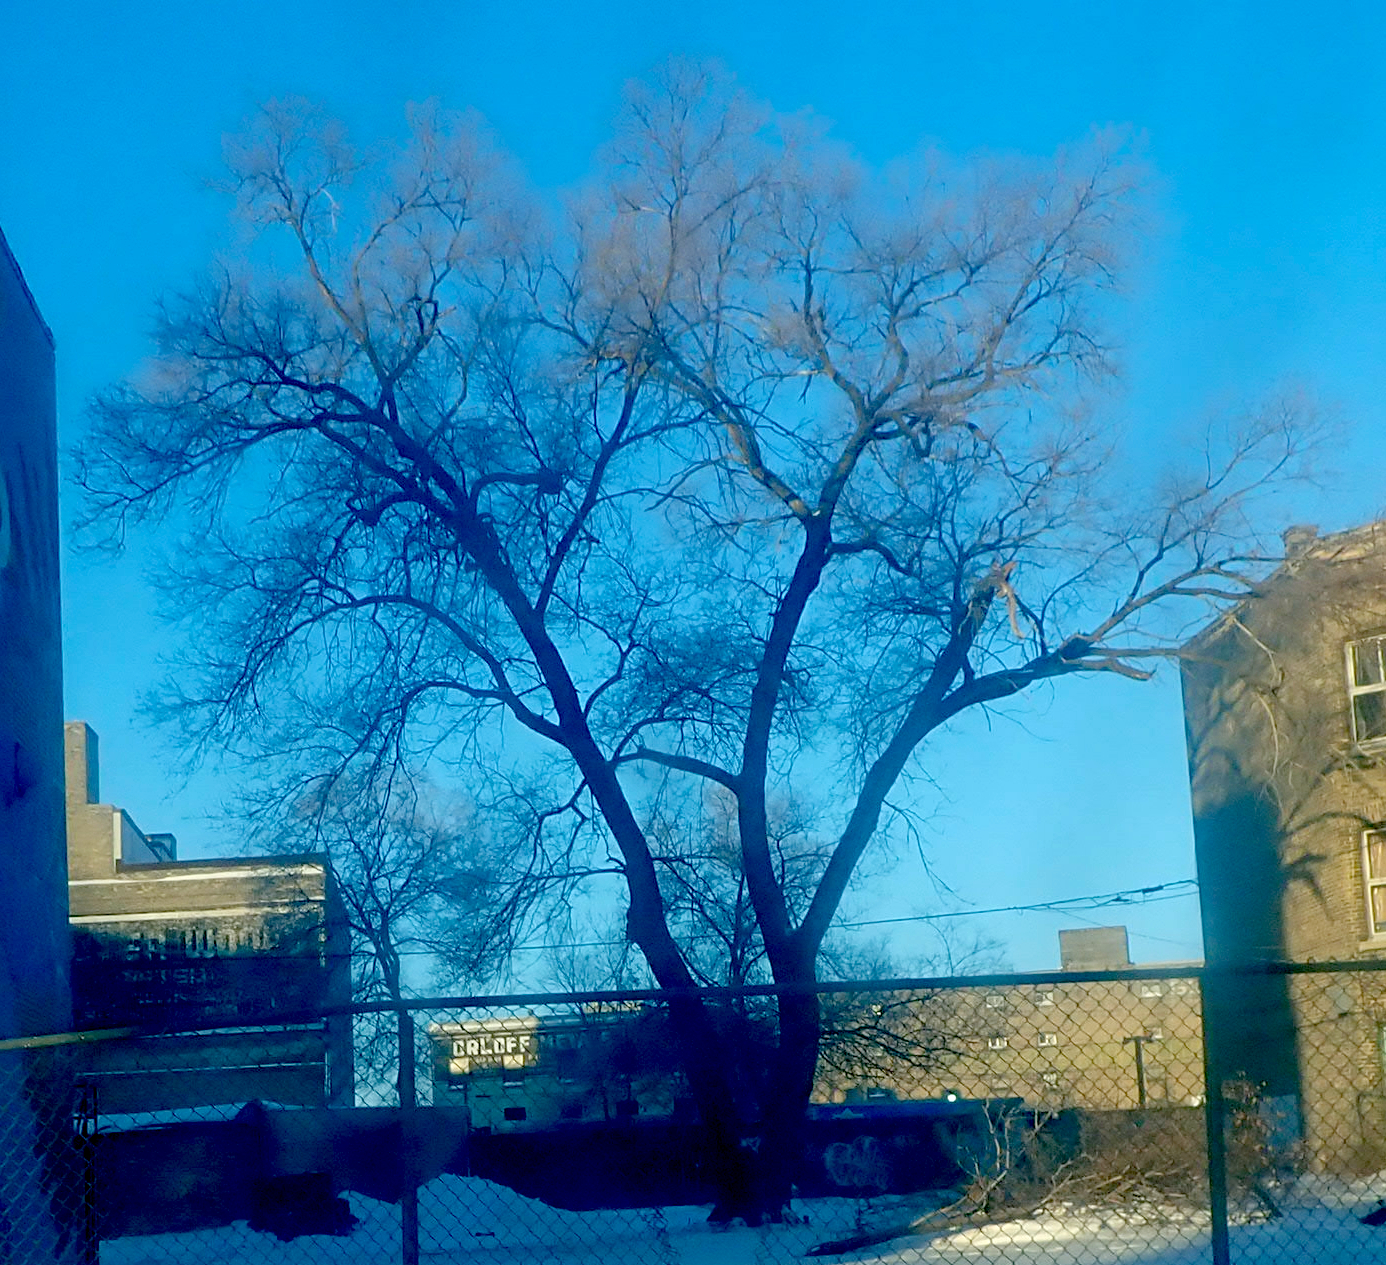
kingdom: Plantae
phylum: Tracheophyta
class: Magnoliopsida
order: Sapindales
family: Sapindaceae
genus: Acer
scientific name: Acer negundo
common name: Ashleaf maple
